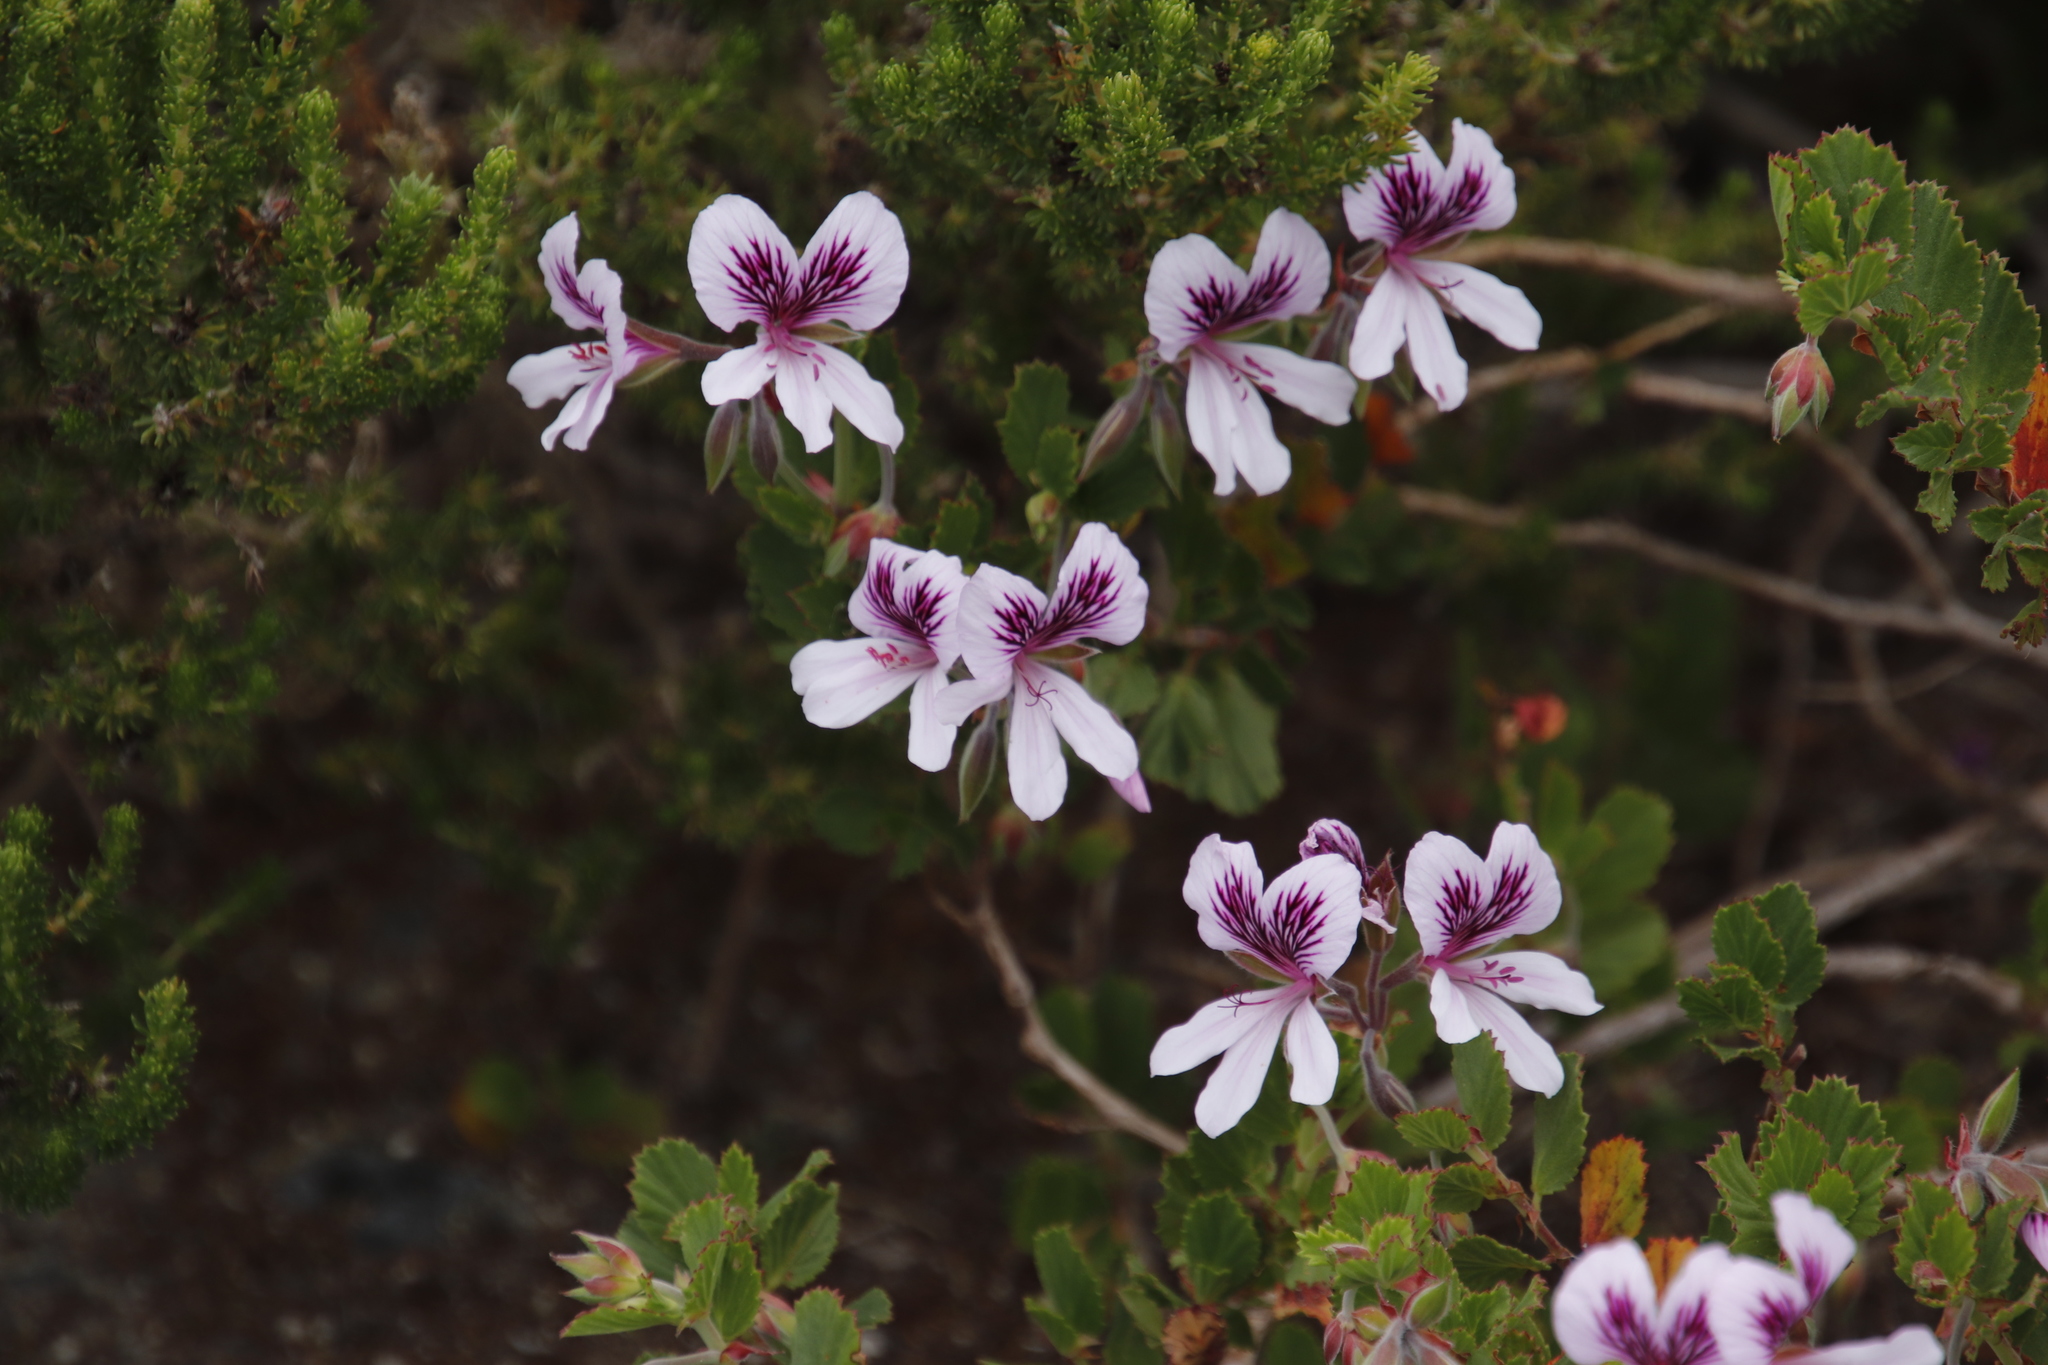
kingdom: Plantae
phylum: Tracheophyta
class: Magnoliopsida
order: Geraniales
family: Geraniaceae
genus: Pelargonium
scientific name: Pelargonium betulinum
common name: Birch-leaf pelargonium
